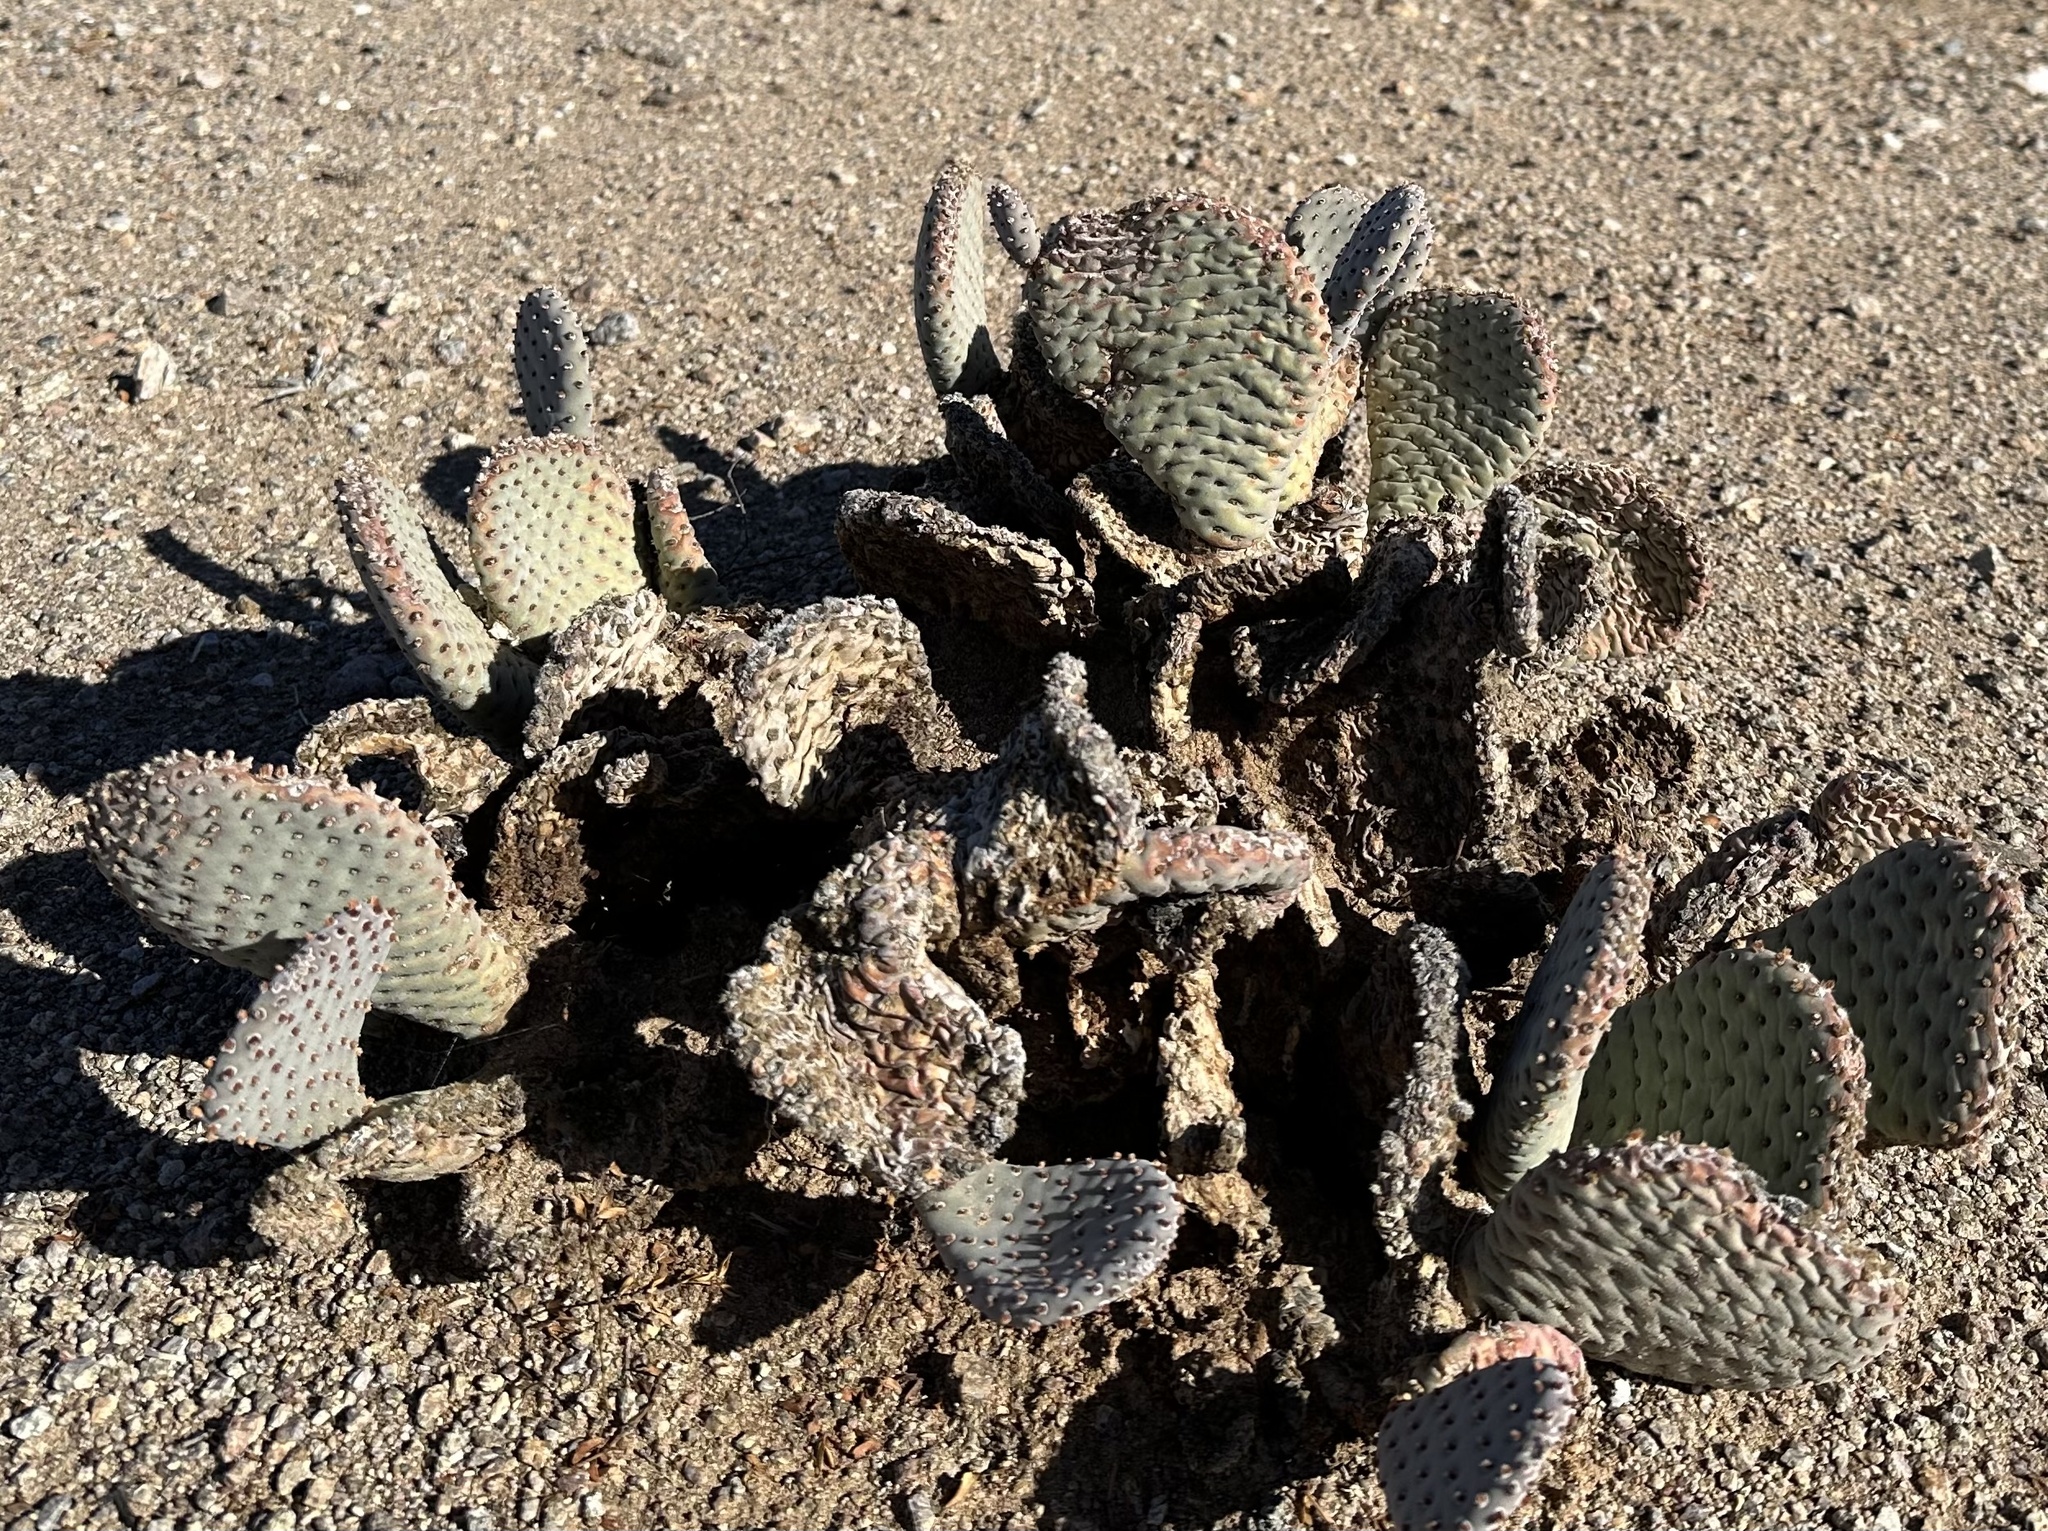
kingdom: Plantae
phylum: Tracheophyta
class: Magnoliopsida
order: Caryophyllales
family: Cactaceae
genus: Opuntia
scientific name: Opuntia basilaris
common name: Beavertail prickly-pear
